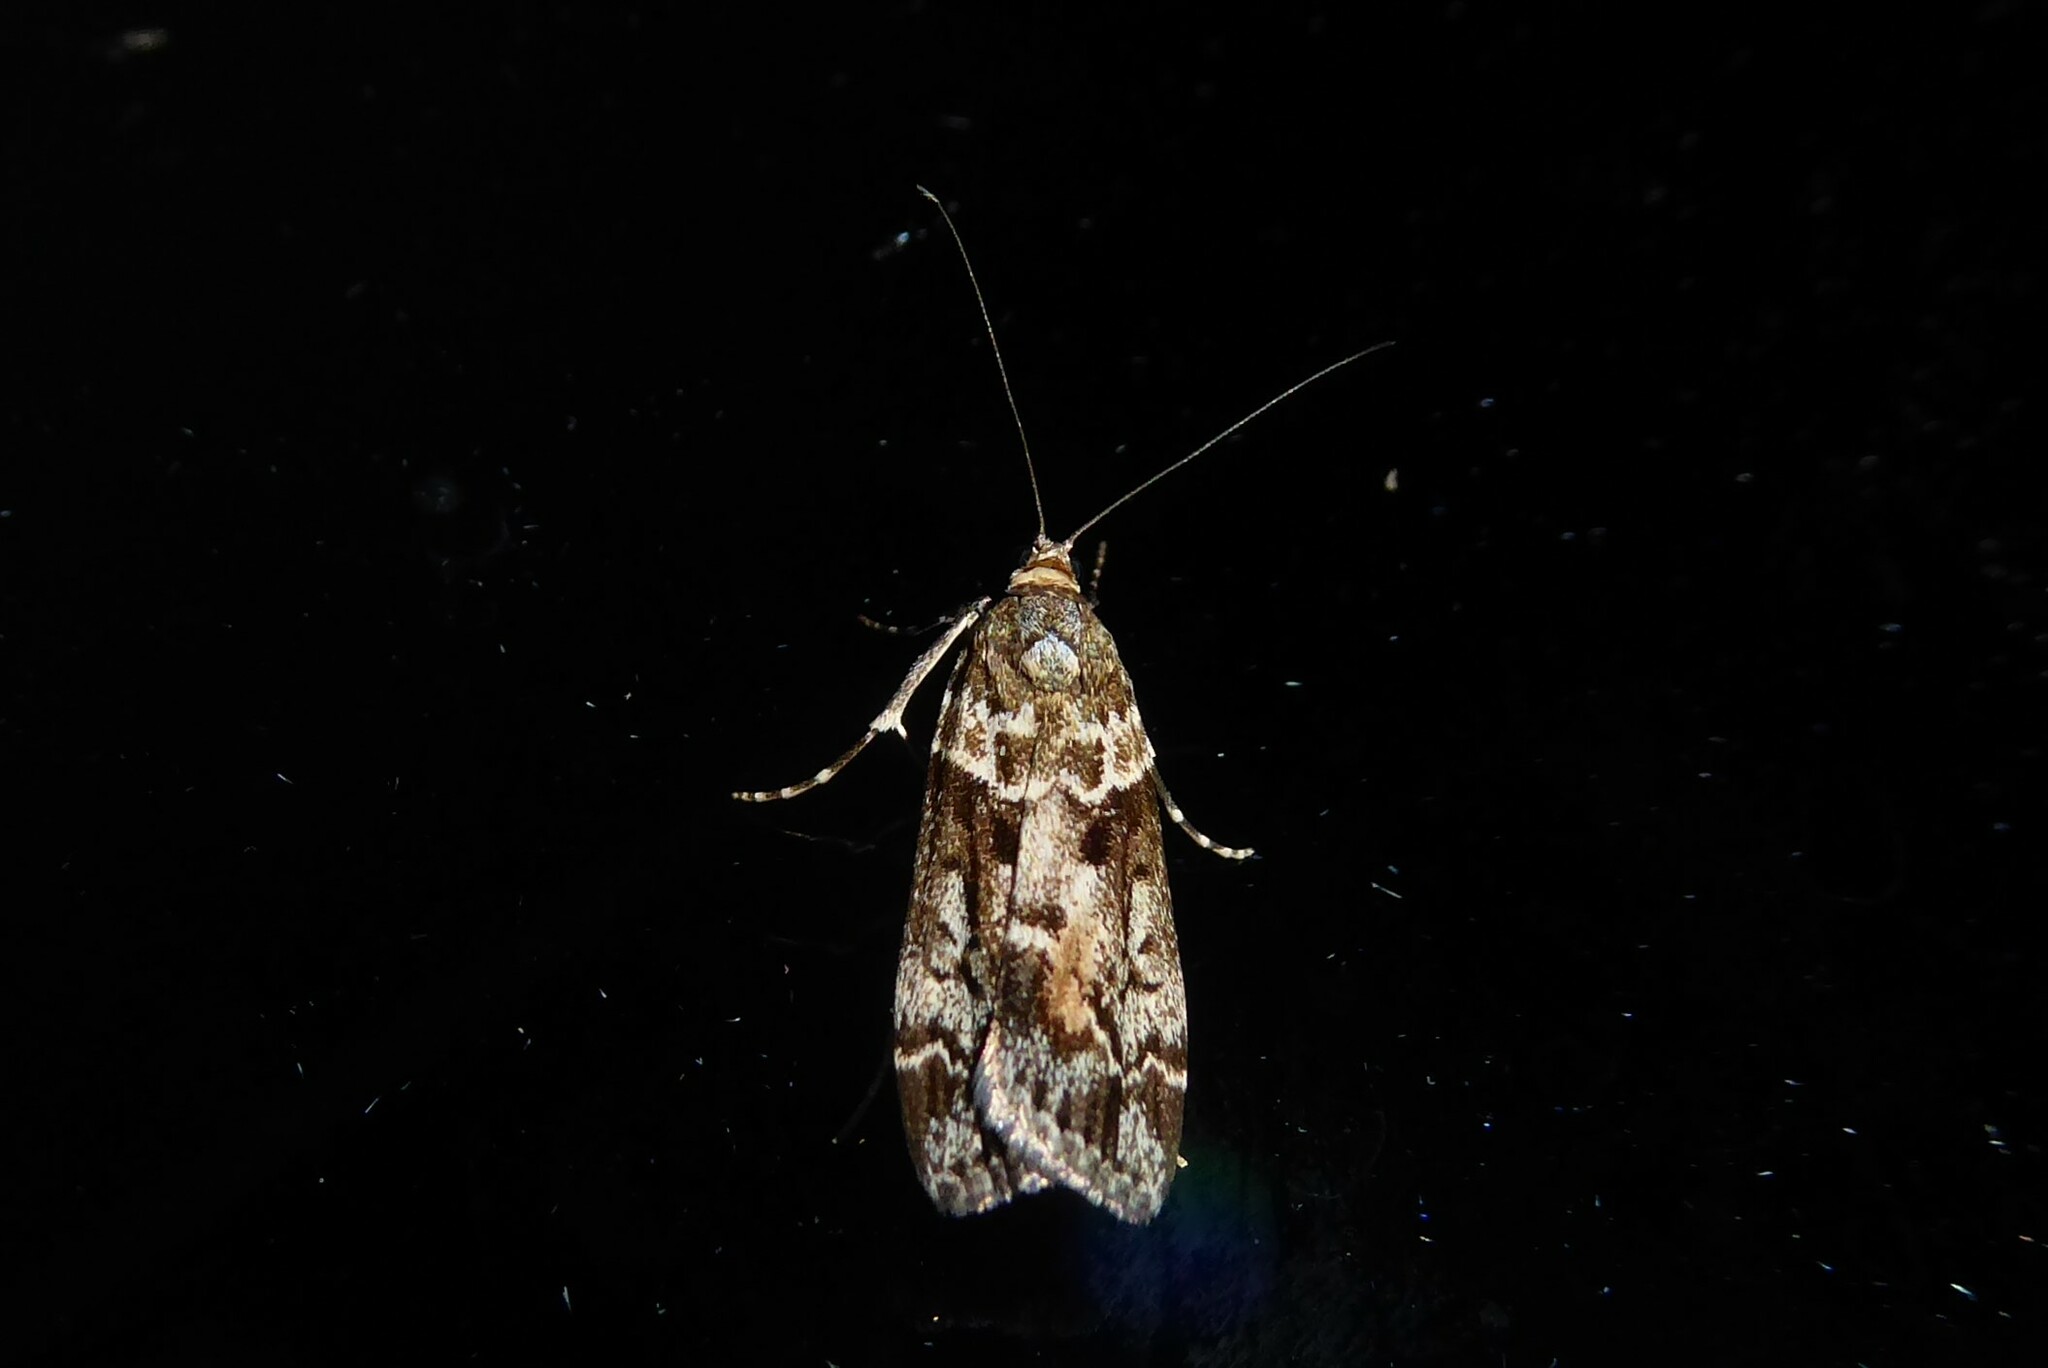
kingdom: Animalia
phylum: Arthropoda
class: Insecta
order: Lepidoptera
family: Crambidae
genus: Eudonia
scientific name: Eudonia submarginalis
